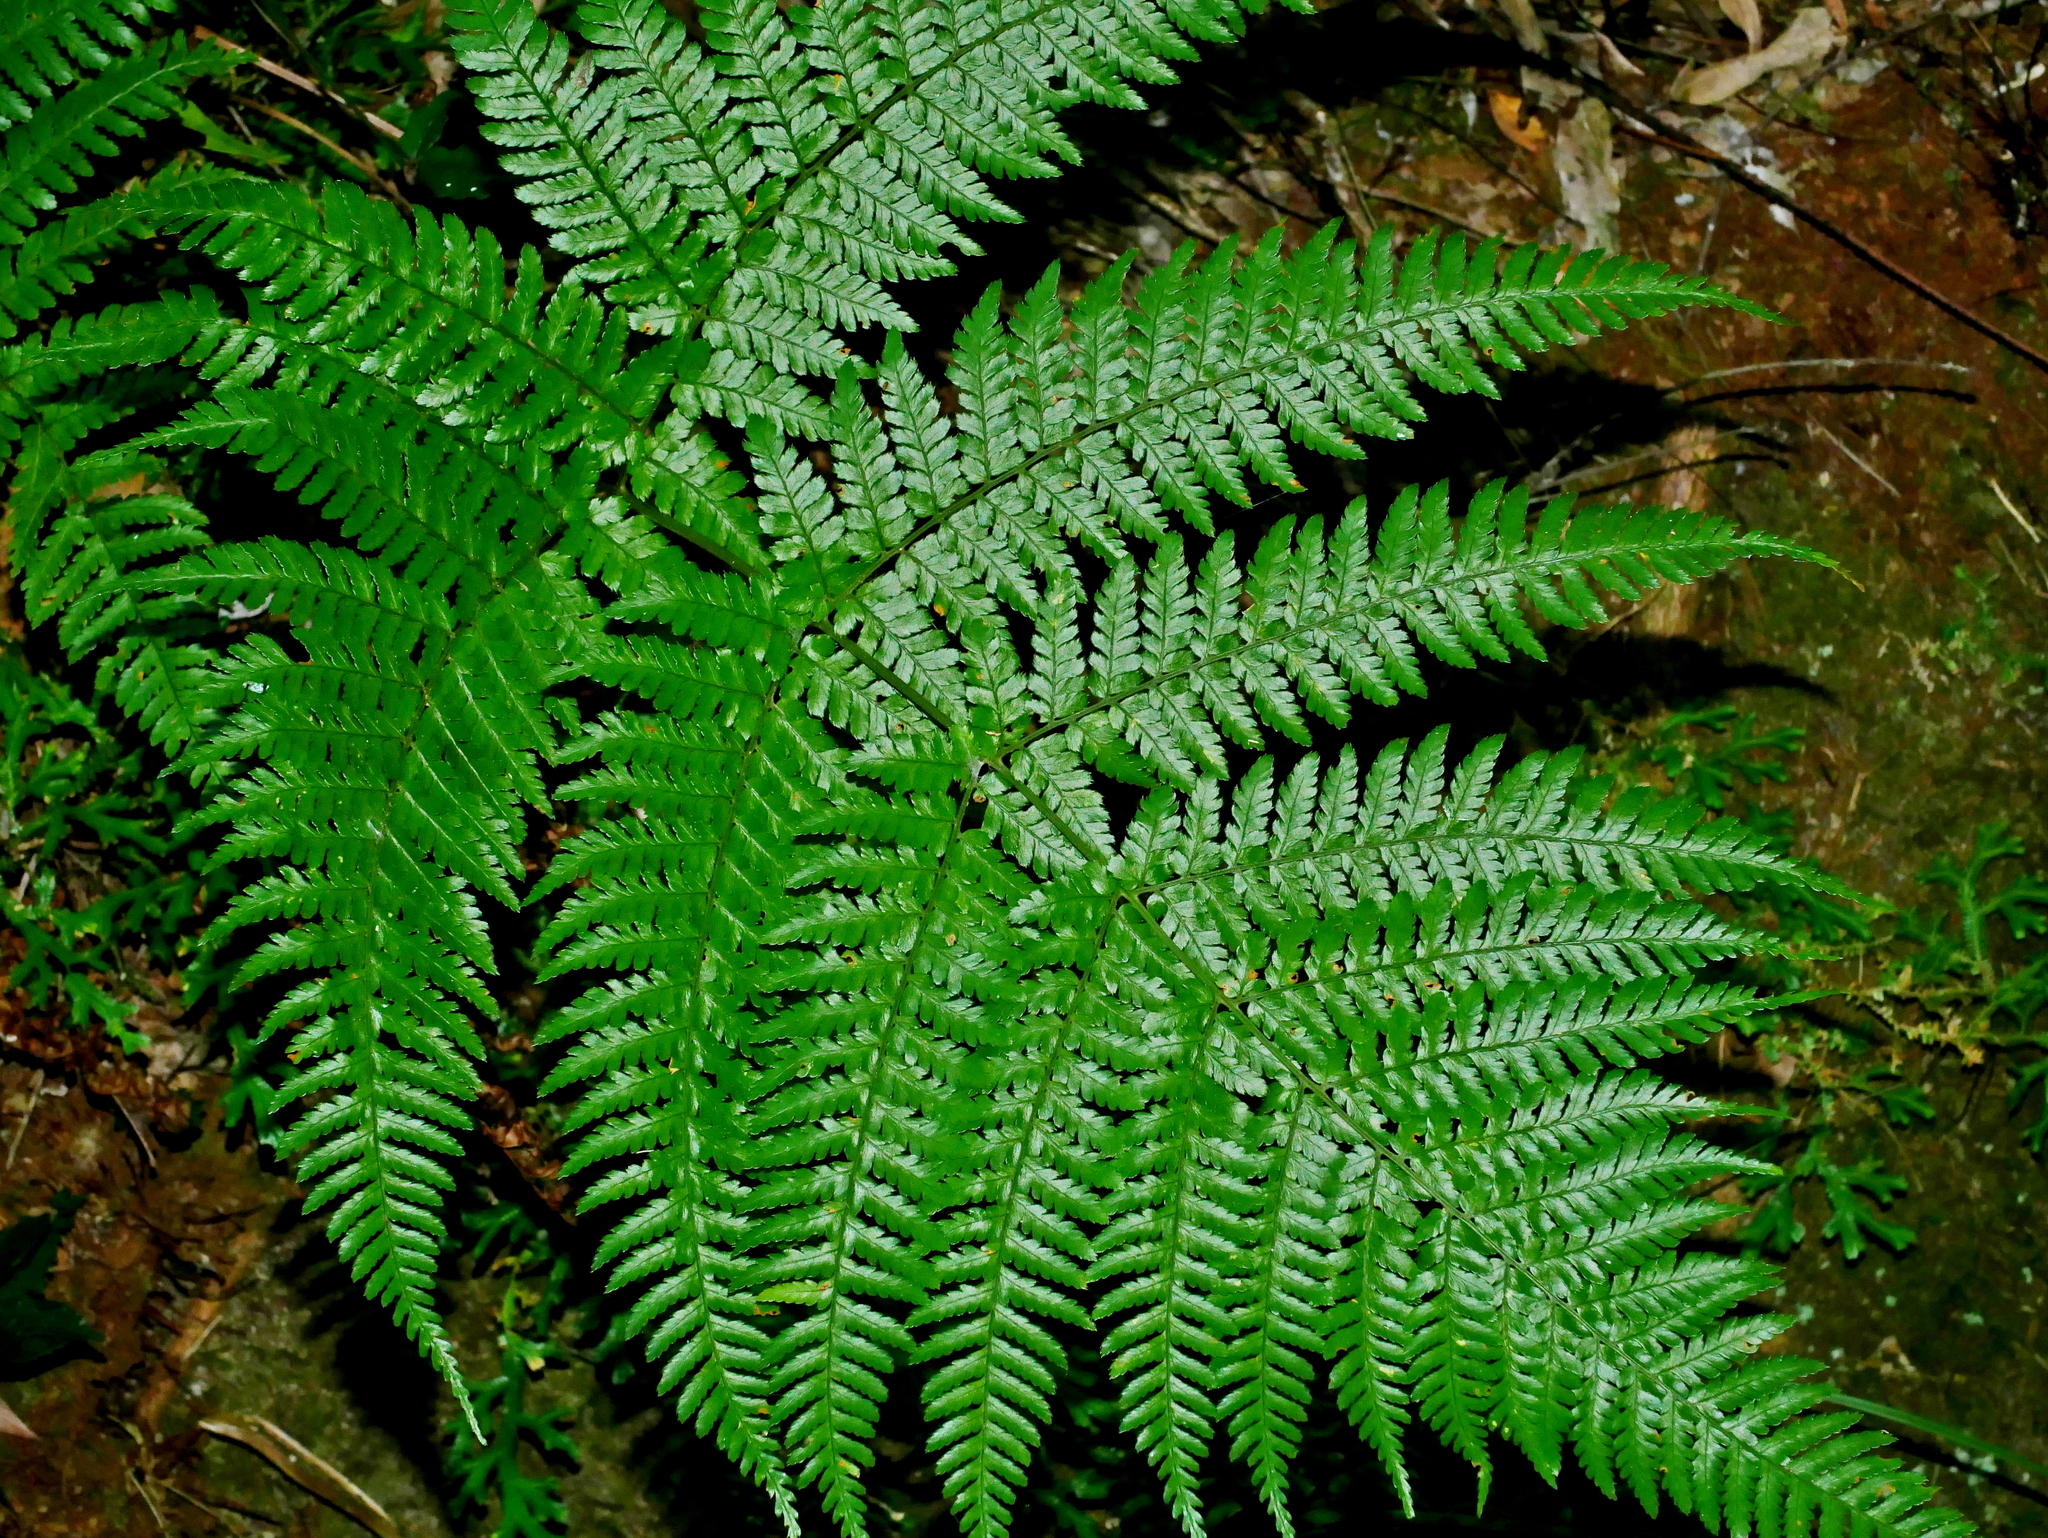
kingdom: Plantae
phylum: Tracheophyta
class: Polypodiopsida
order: Polypodiales
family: Dryopteridaceae
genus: Dryopteris
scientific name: Dryopteris formosana
